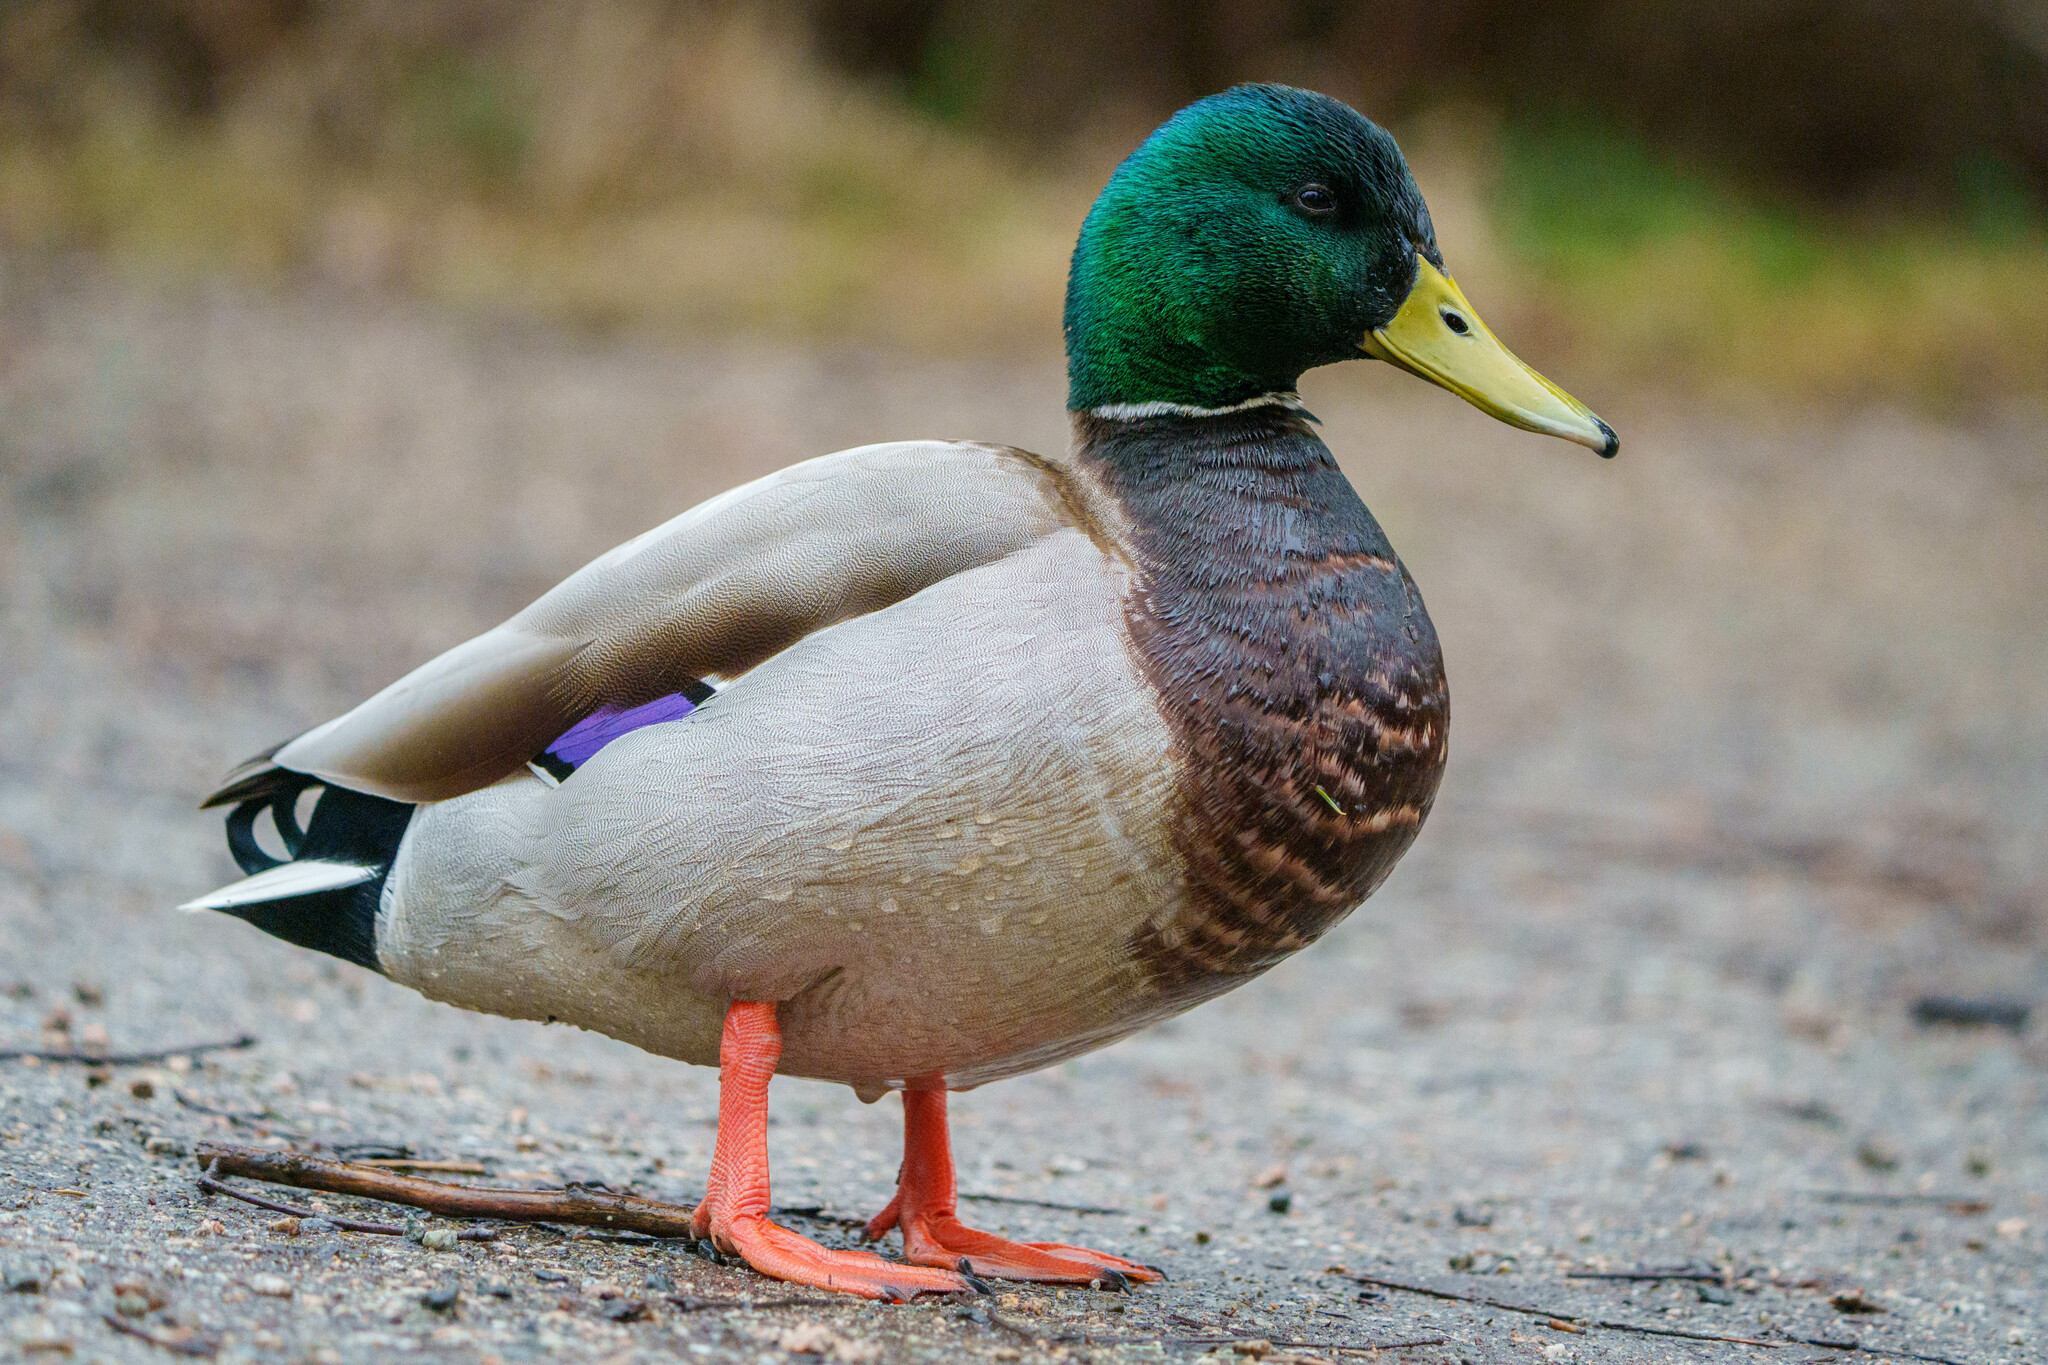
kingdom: Animalia
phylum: Chordata
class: Aves
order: Anseriformes
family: Anatidae
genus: Anas
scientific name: Anas platyrhynchos
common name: Mallard
